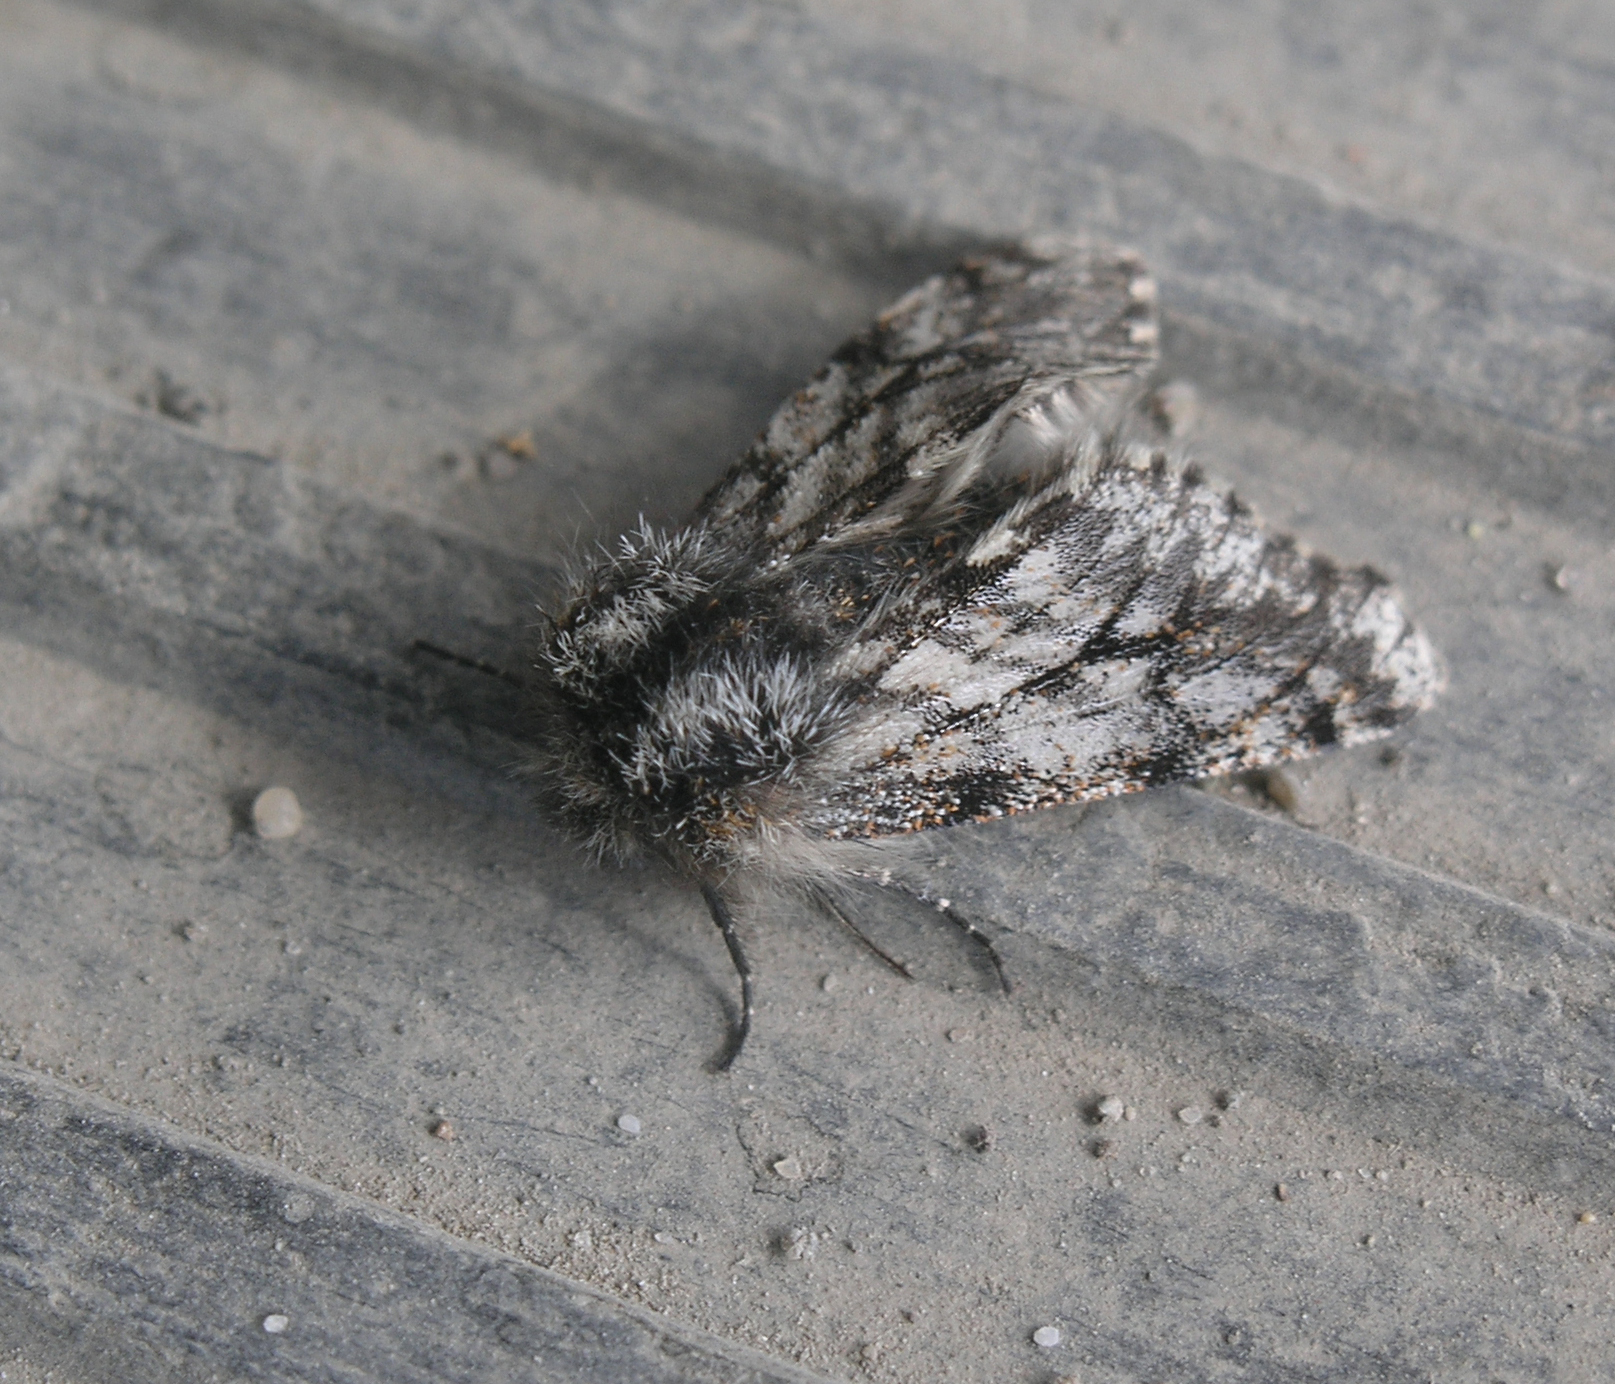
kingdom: Animalia
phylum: Arthropoda
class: Insecta
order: Lepidoptera
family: Geometridae
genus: Lycia
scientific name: Lycia pomonaria
